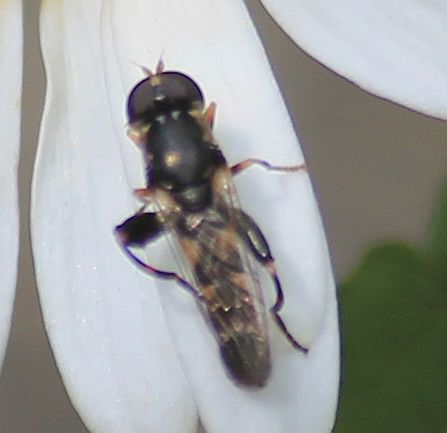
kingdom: Animalia
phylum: Arthropoda
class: Insecta
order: Diptera
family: Syrphidae
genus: Syritta
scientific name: Syritta pipiens
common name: Hover fly
